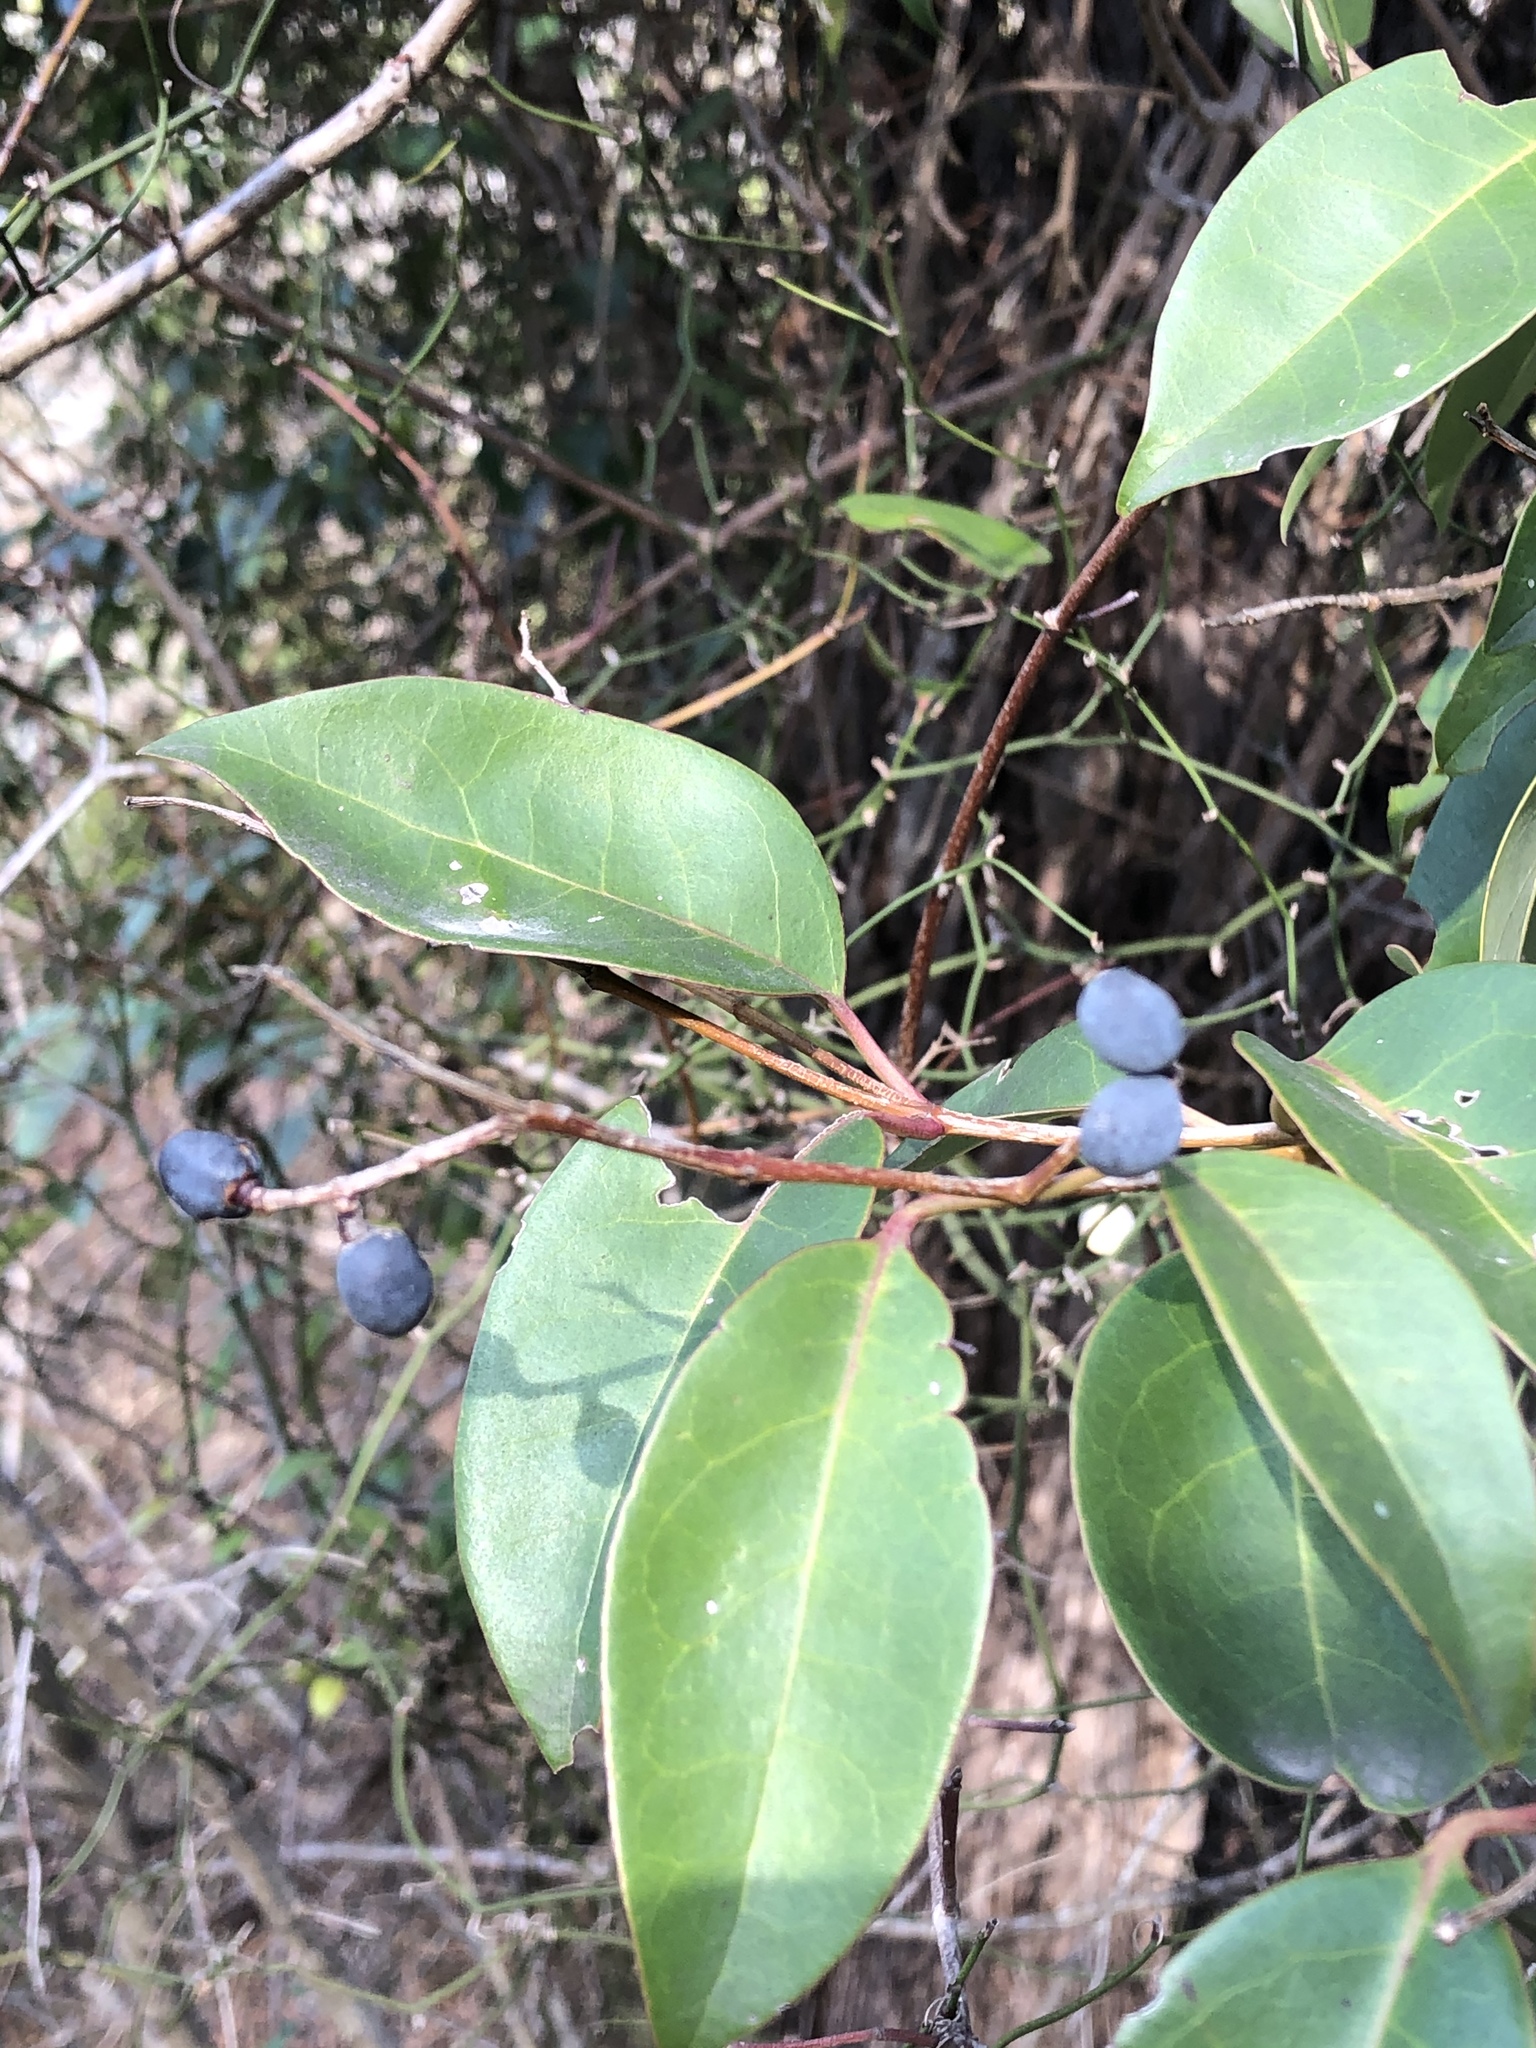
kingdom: Plantae
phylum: Tracheophyta
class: Magnoliopsida
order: Lamiales
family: Oleaceae
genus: Ligustrum
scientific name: Ligustrum lucidum
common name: Glossy privet
